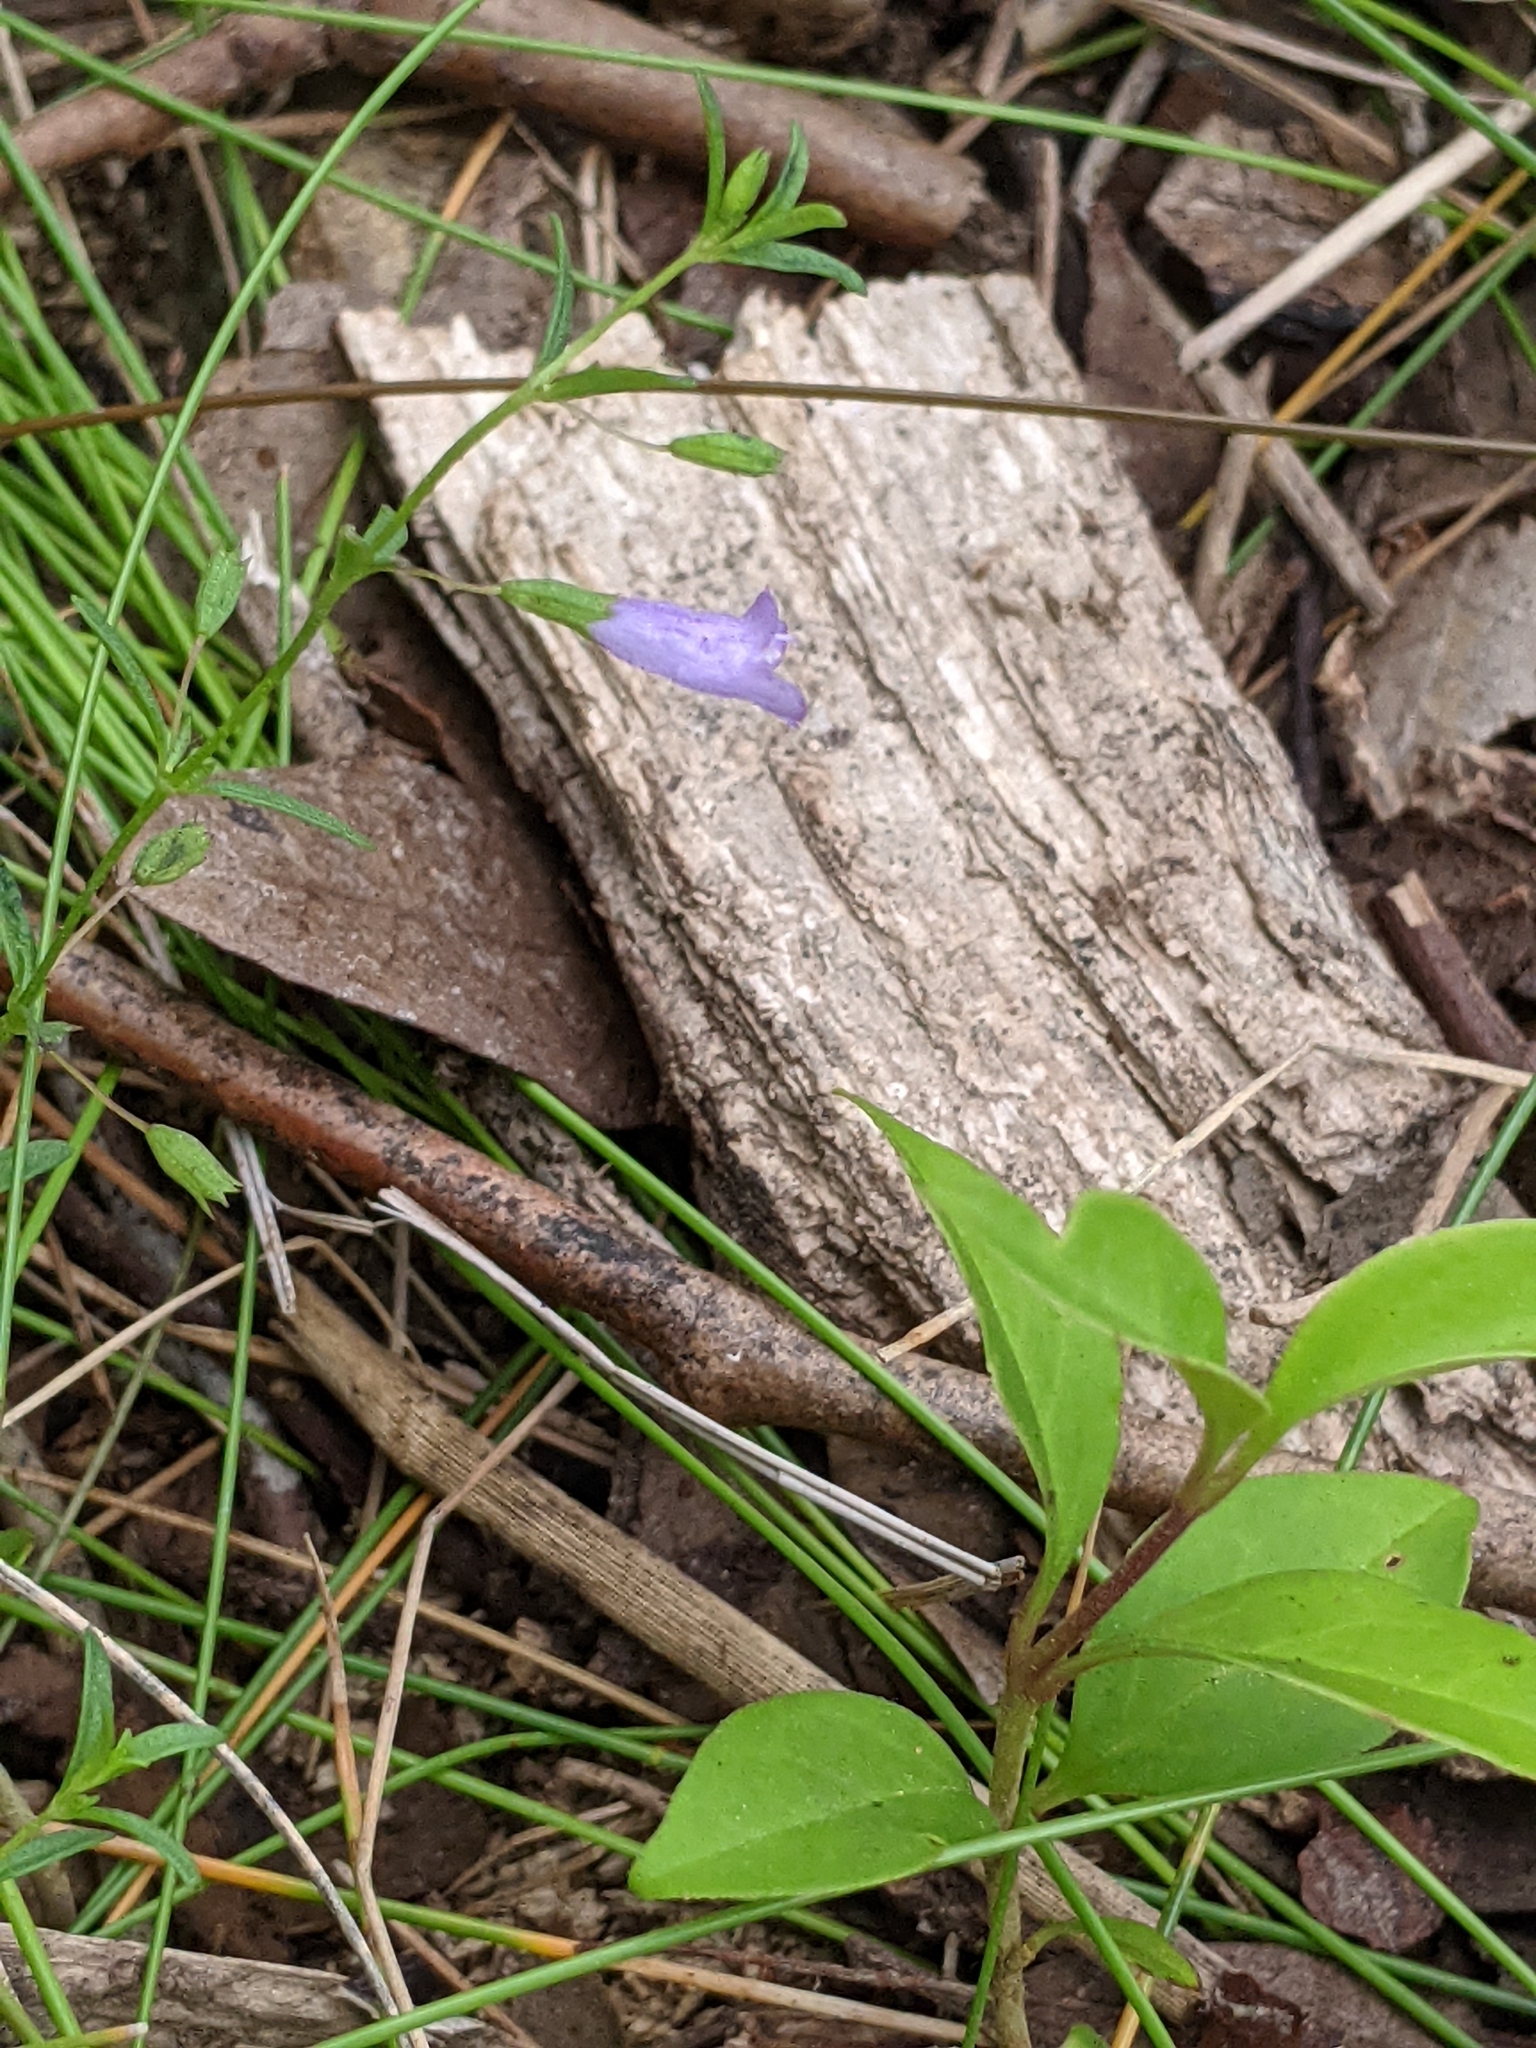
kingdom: Plantae
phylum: Tracheophyta
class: Magnoliopsida
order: Lamiales
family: Lamiaceae
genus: Clinopodium
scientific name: Clinopodium arkansanum
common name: Limestone calamint
